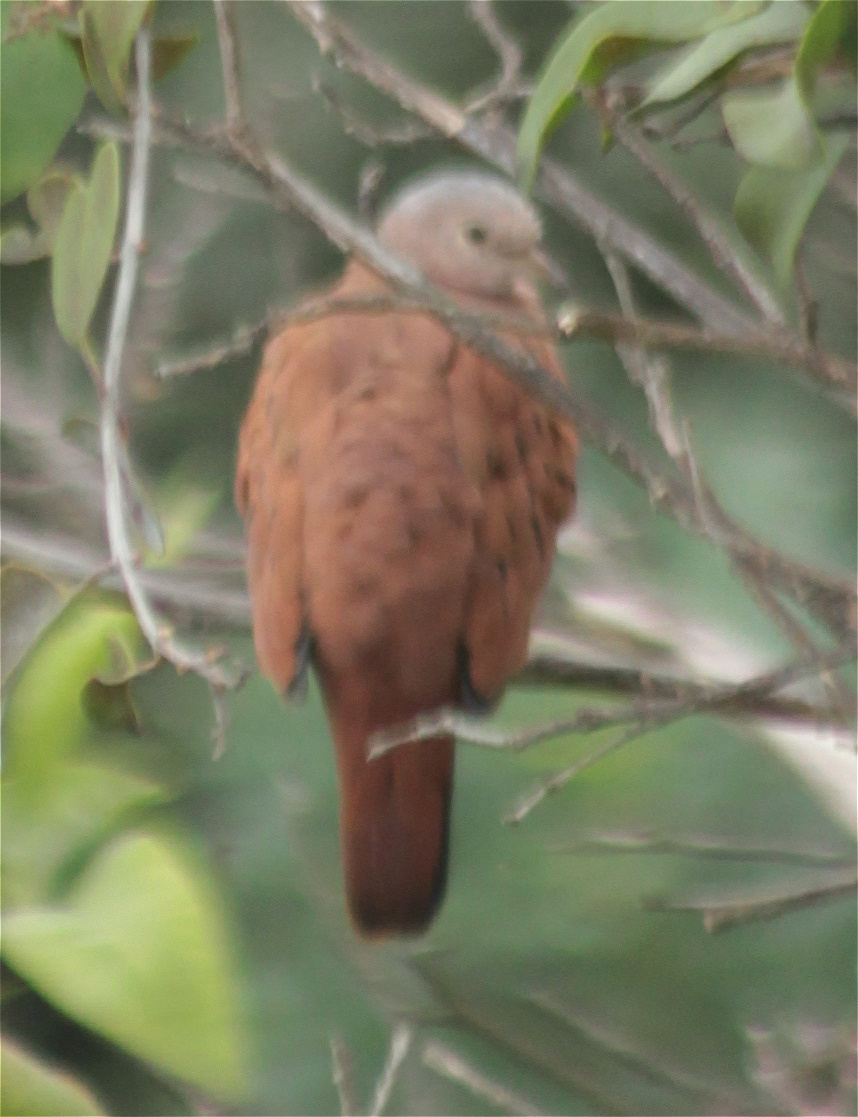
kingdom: Animalia
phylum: Chordata
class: Aves
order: Columbiformes
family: Columbidae
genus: Columbina
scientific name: Columbina talpacoti
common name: Ruddy ground dove
